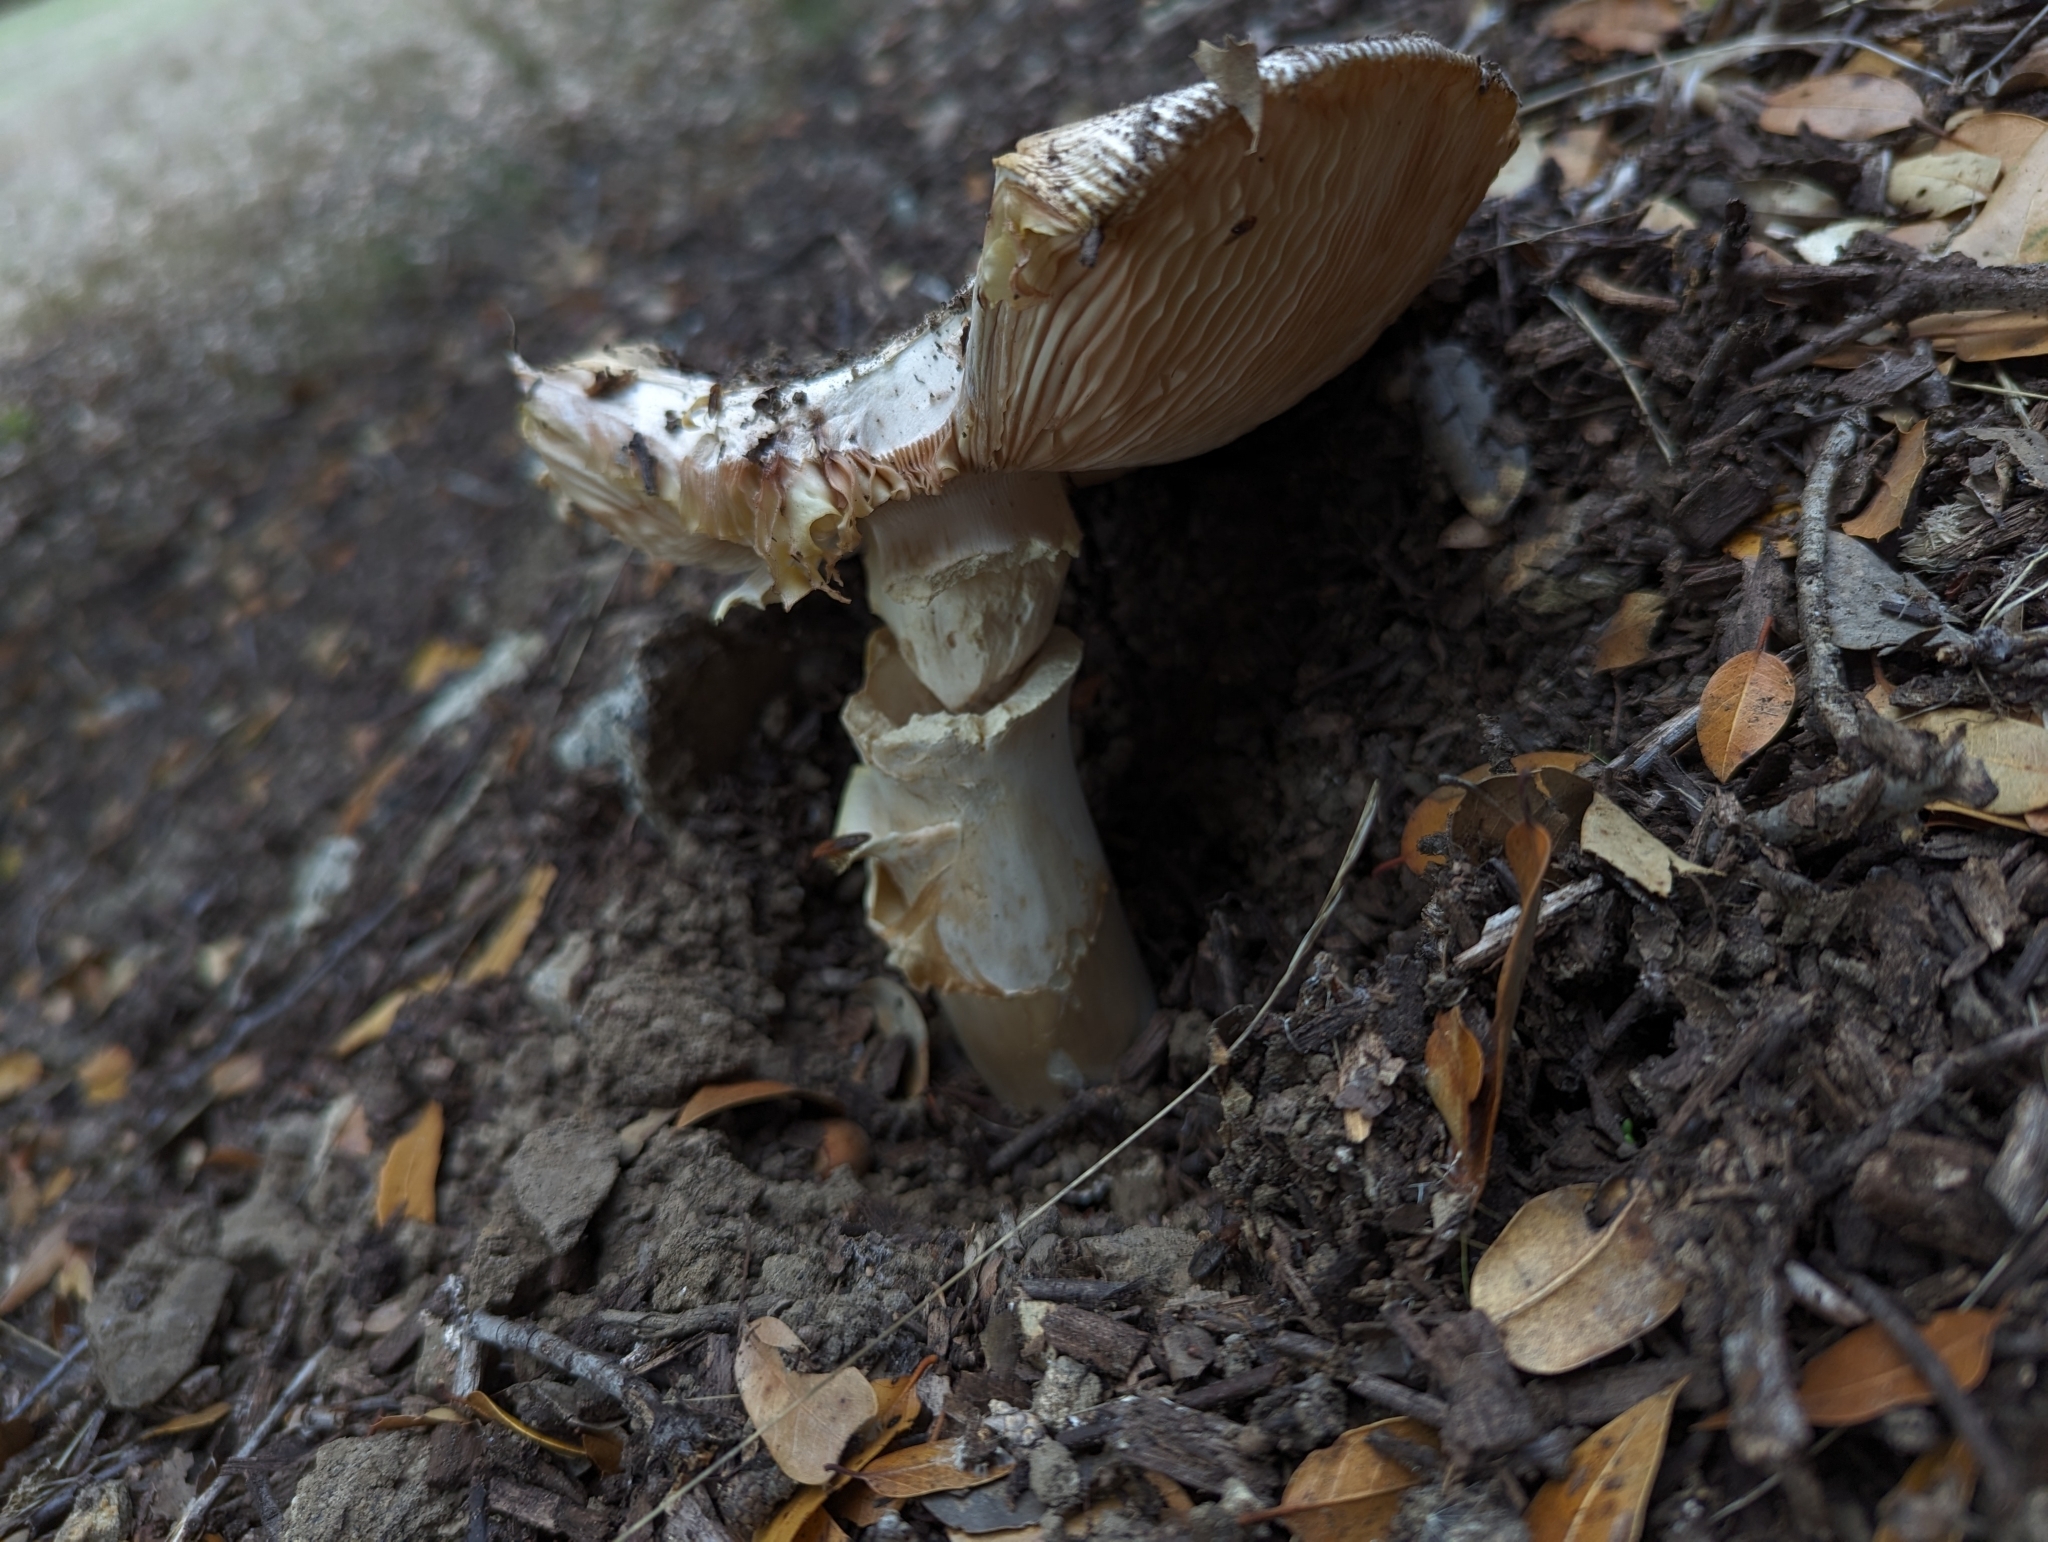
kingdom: Fungi
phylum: Basidiomycota
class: Agaricomycetes
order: Agaricales
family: Amanitaceae
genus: Amanita
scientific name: Amanita calyptroderma
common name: Coccora
